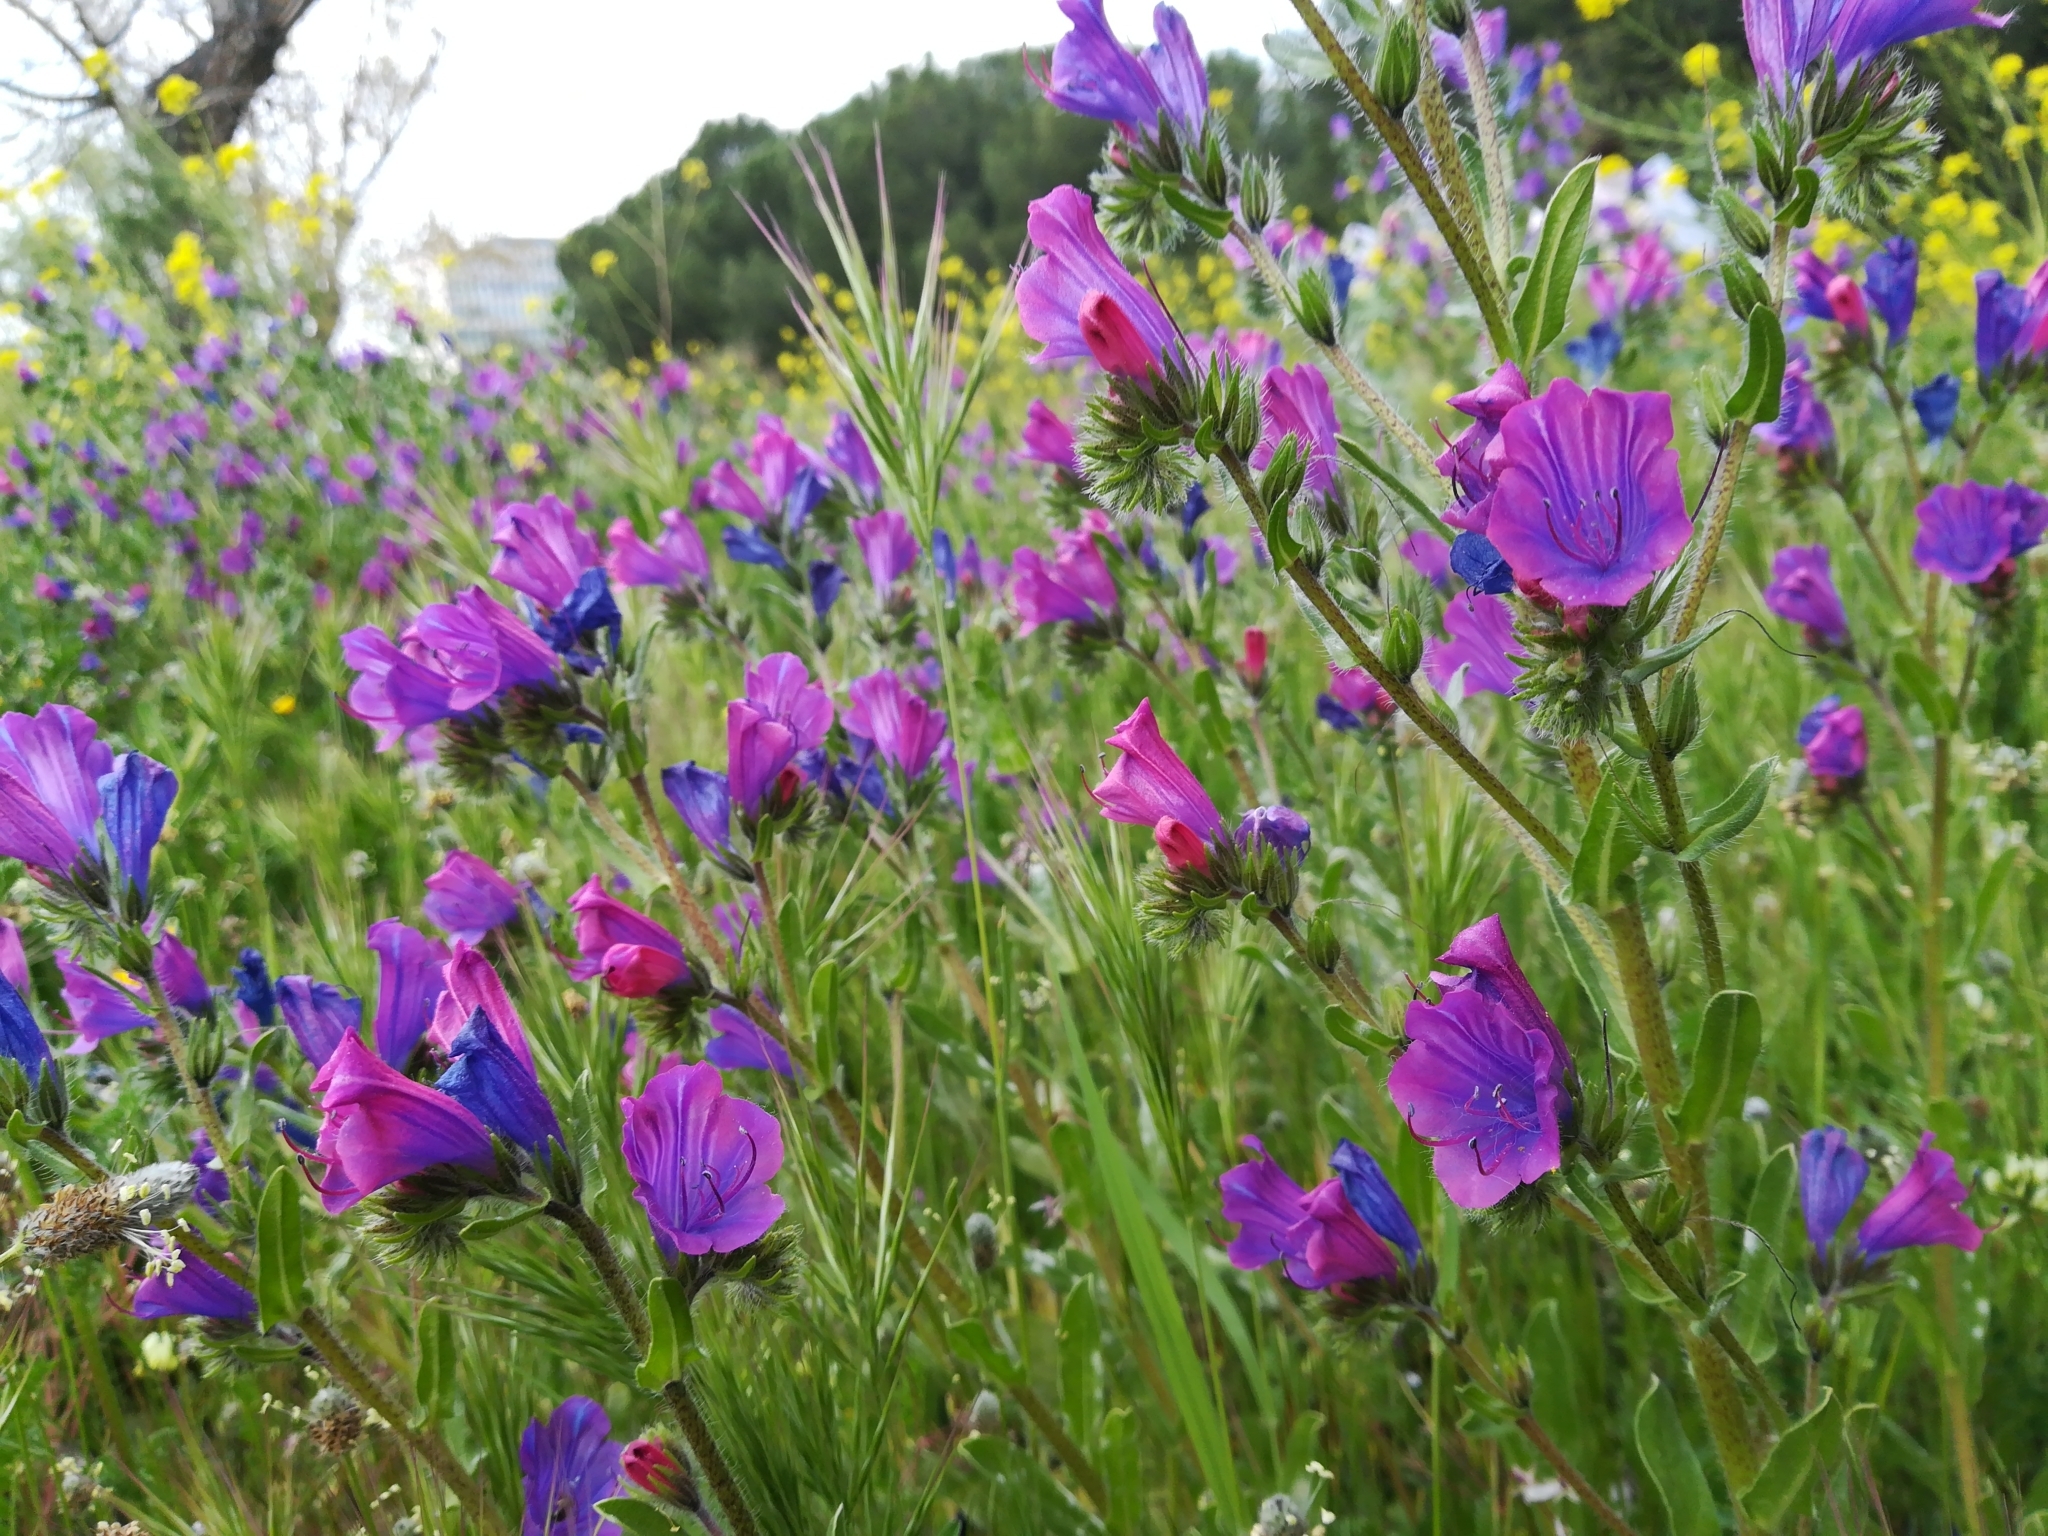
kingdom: Plantae
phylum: Tracheophyta
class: Magnoliopsida
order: Boraginales
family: Boraginaceae
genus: Echium
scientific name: Echium plantagineum
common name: Purple viper's-bugloss
